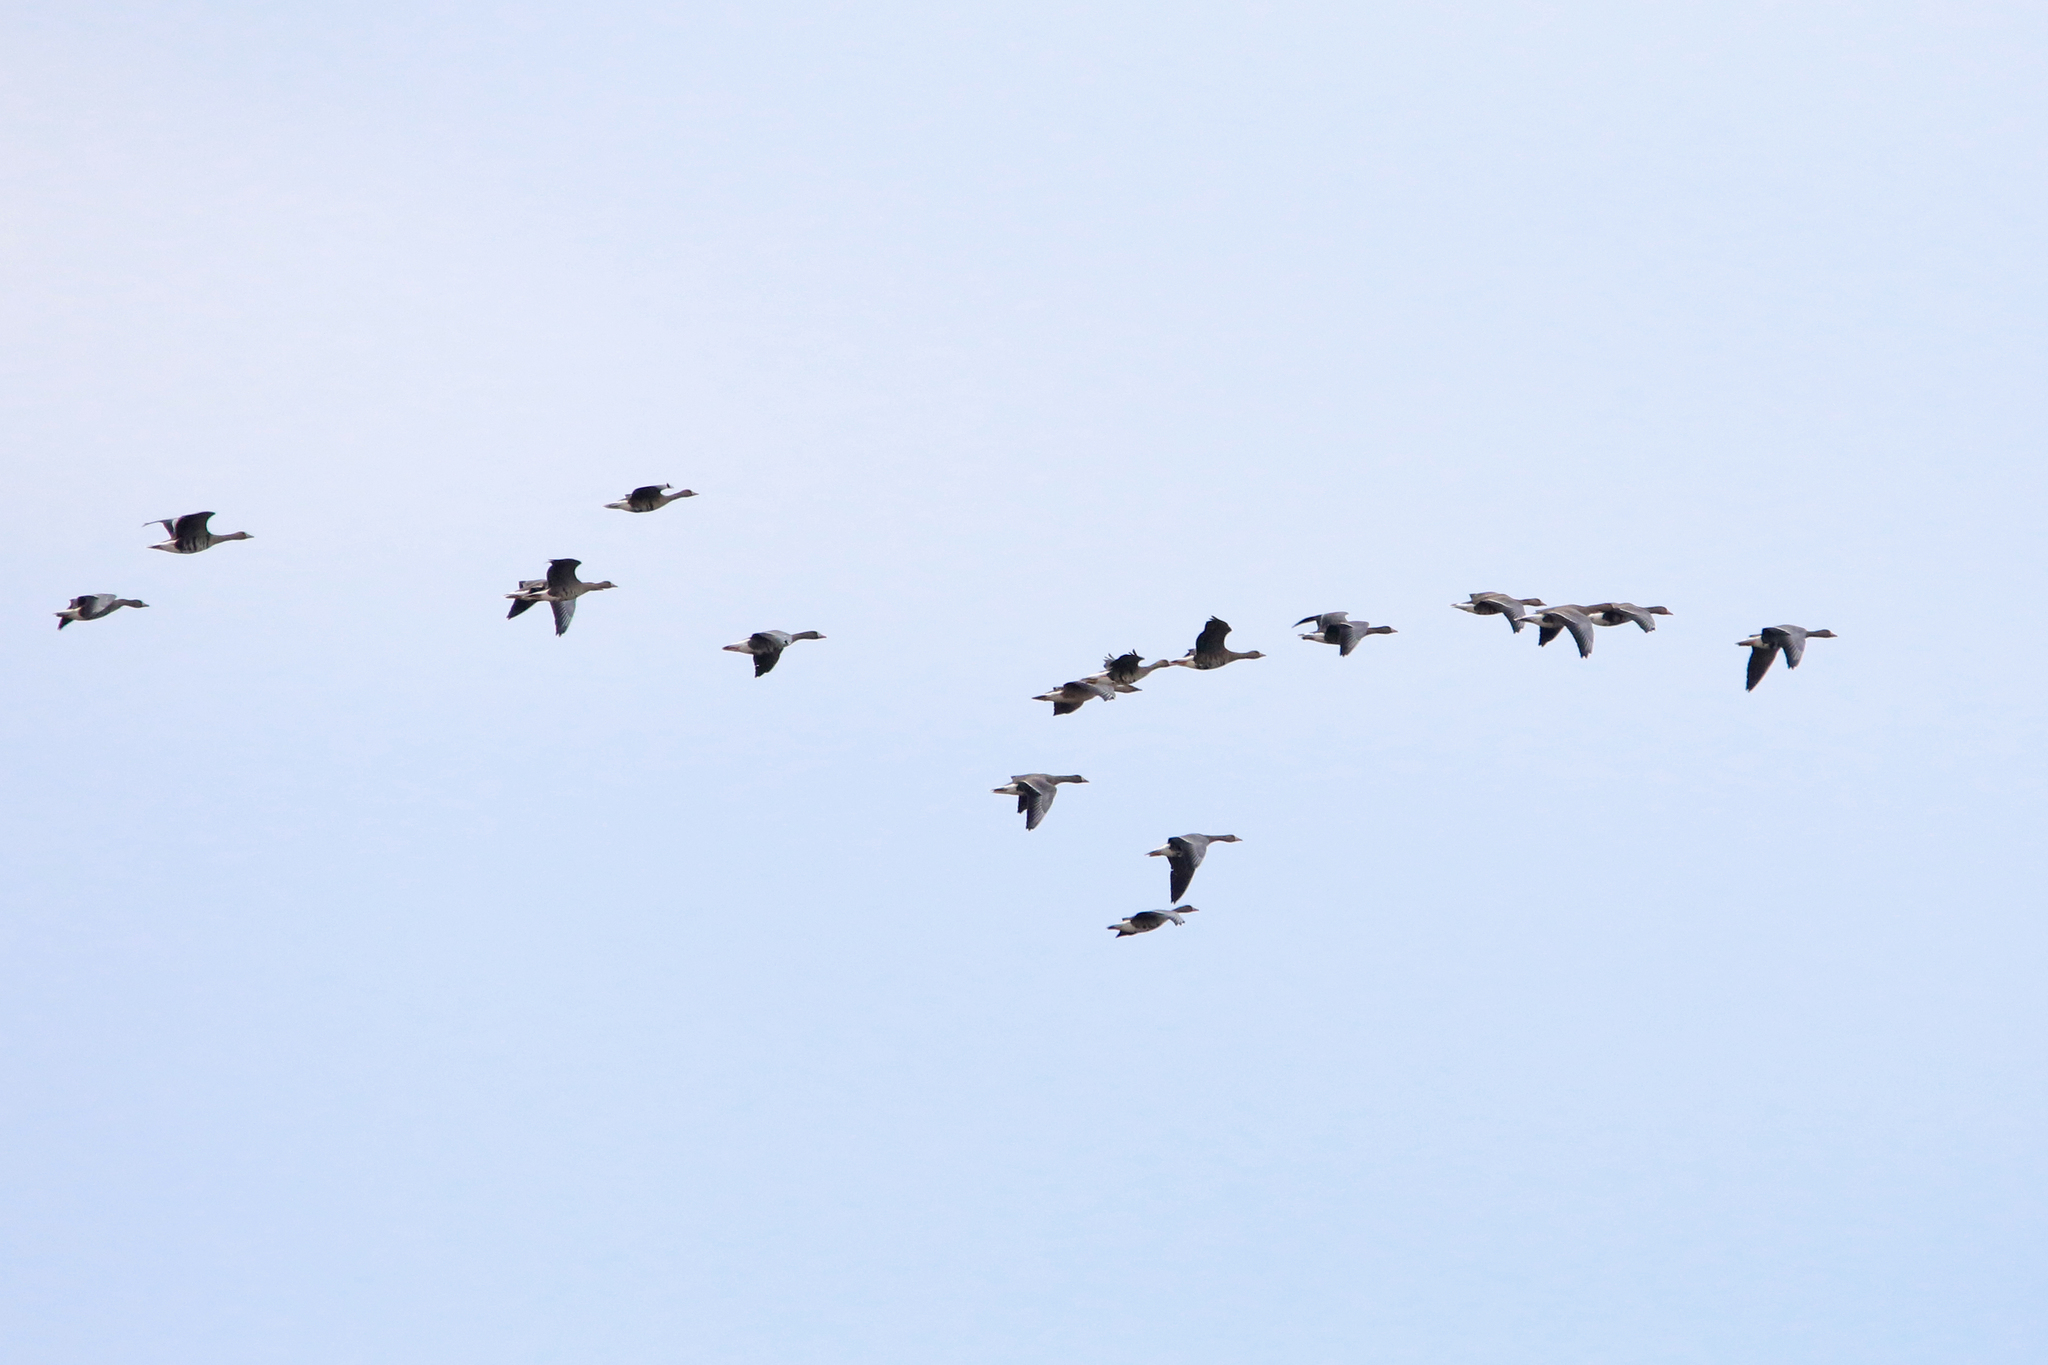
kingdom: Animalia
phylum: Chordata
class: Aves
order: Anseriformes
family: Anatidae
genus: Anser
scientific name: Anser albifrons
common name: Greater white-fronted goose
